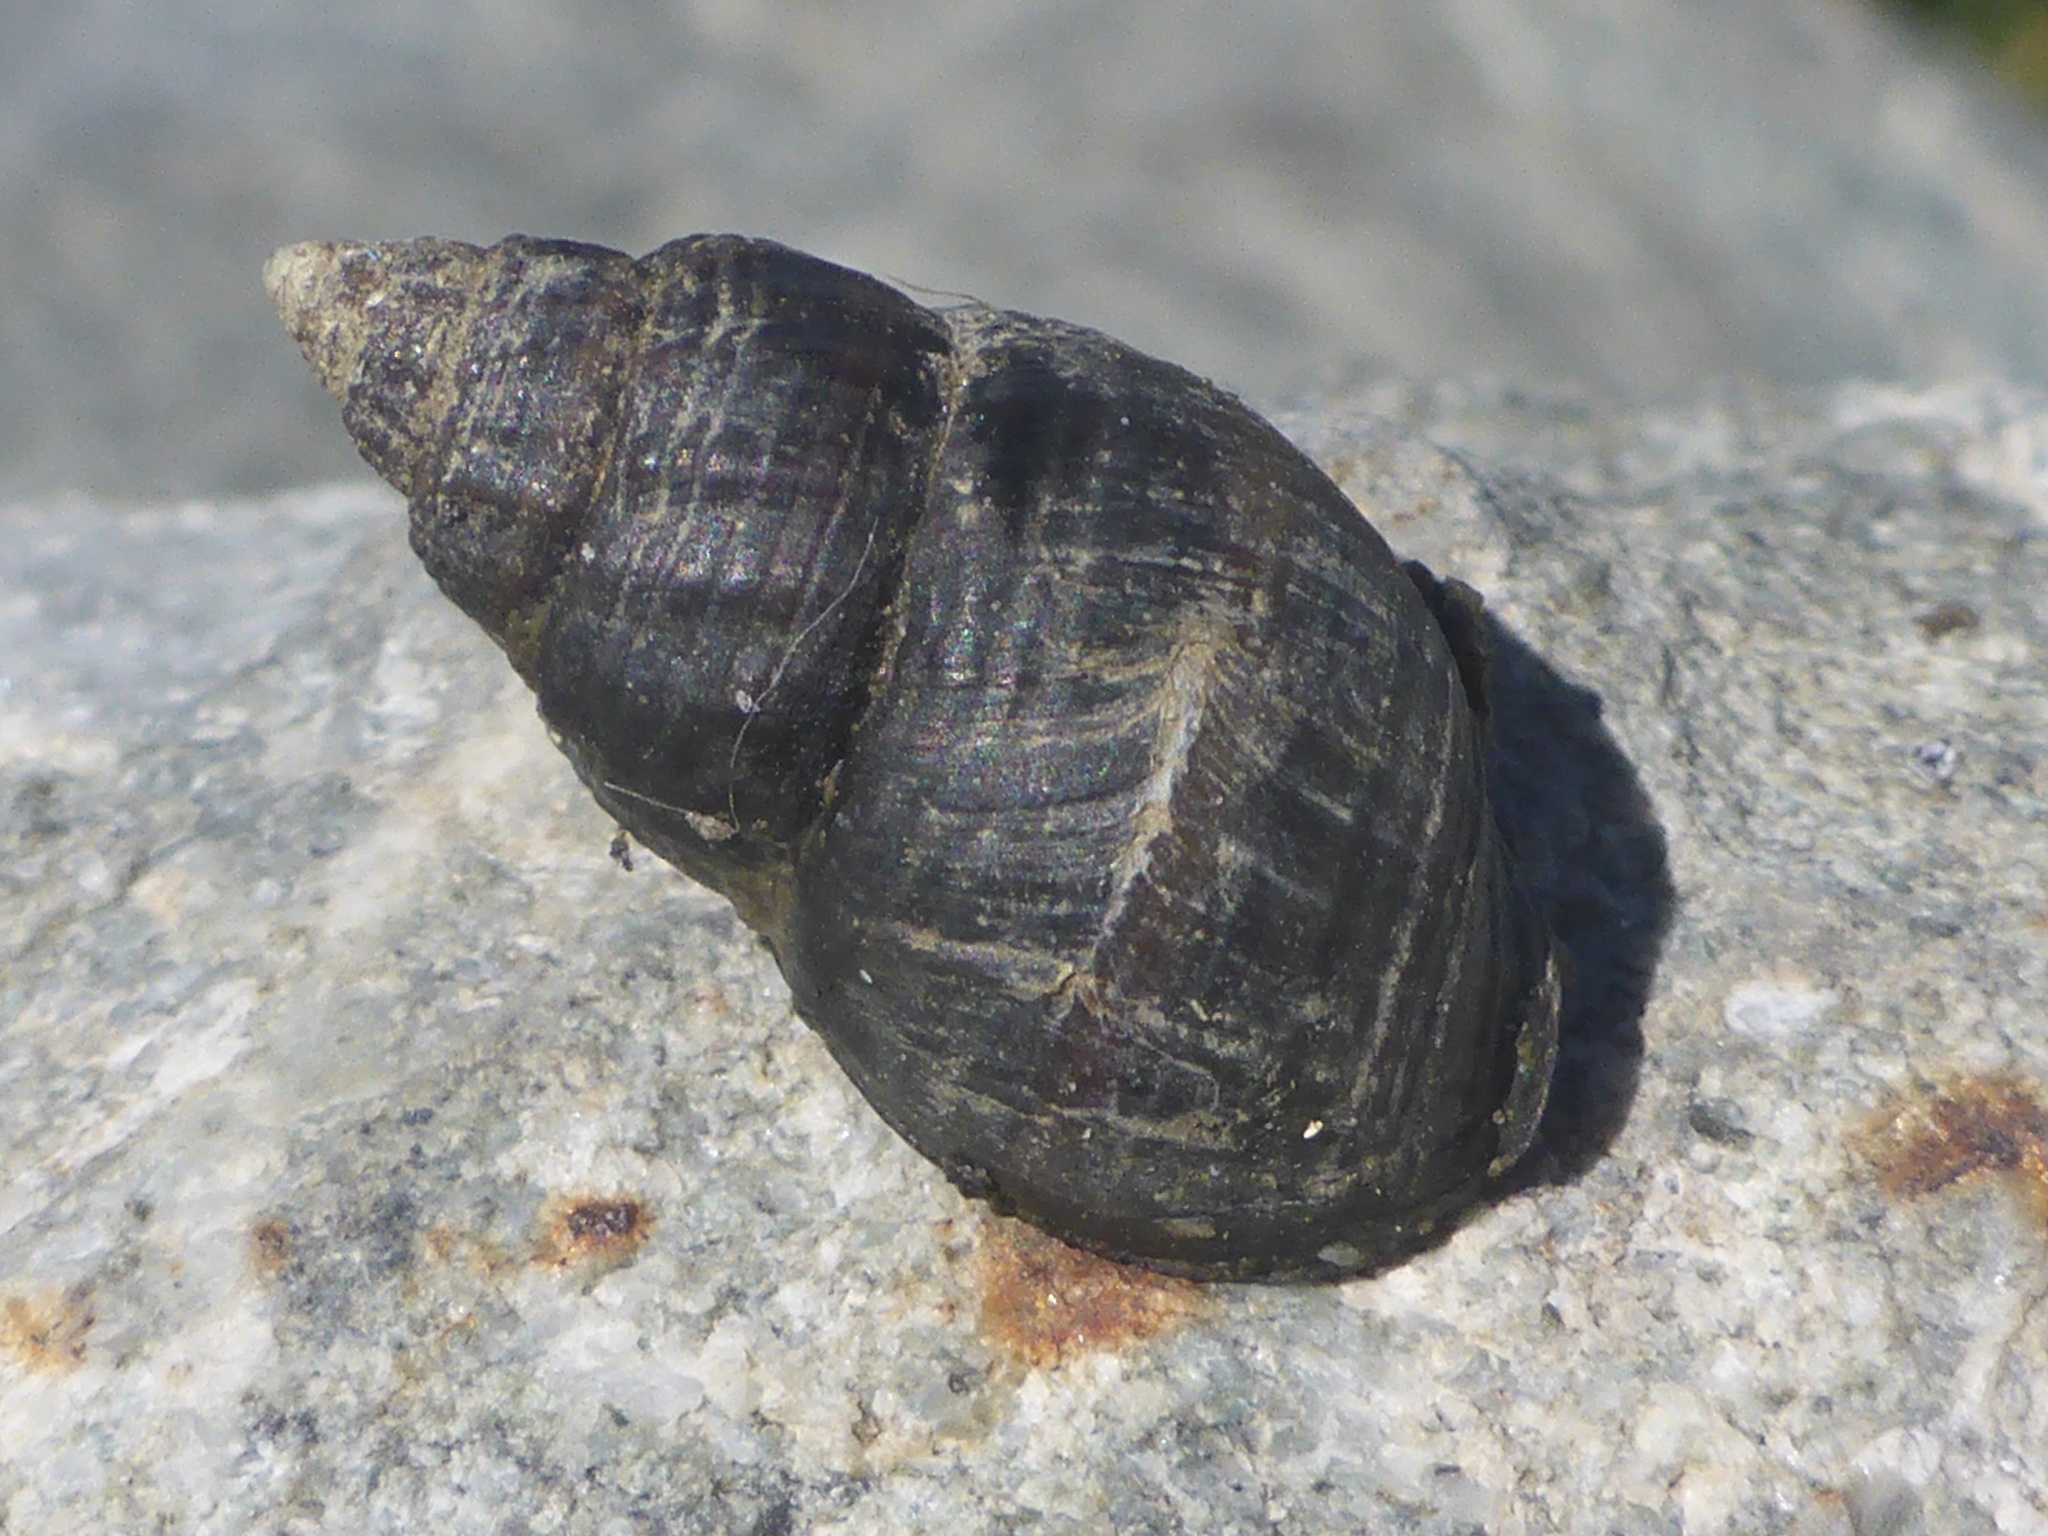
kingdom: Animalia
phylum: Mollusca
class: Gastropoda
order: Neogastropoda
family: Nassariidae
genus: Ilyanassa
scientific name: Ilyanassa obsoleta
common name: Eastern mudsnail
